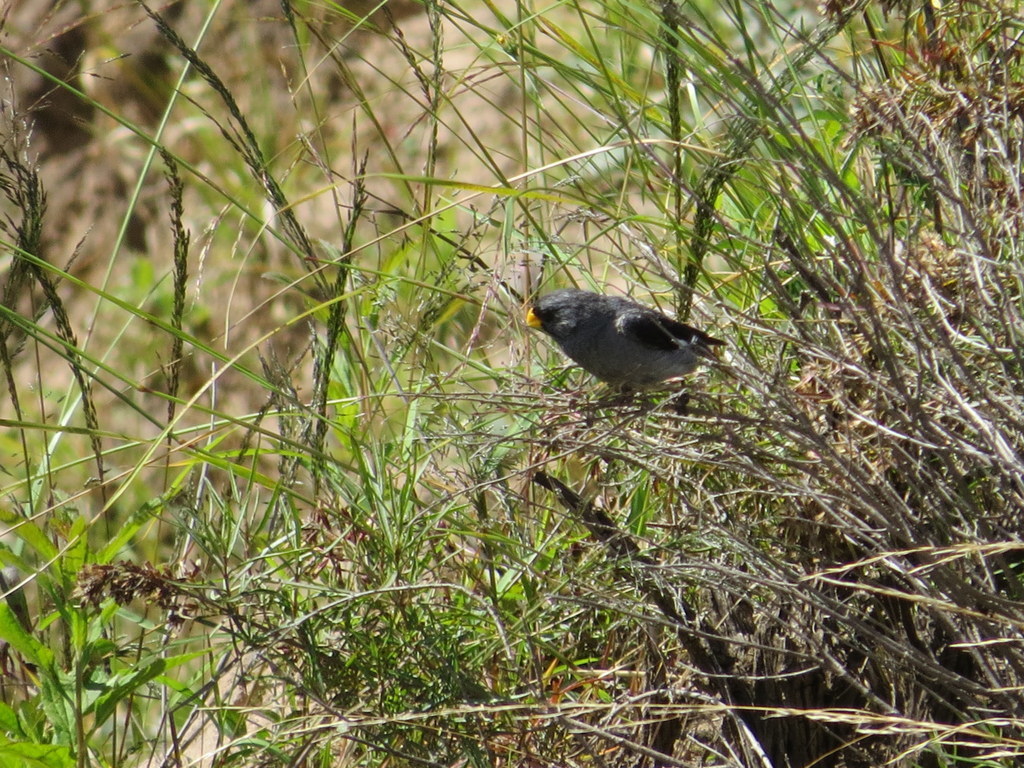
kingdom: Animalia
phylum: Chordata
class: Aves
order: Passeriformes
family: Thraupidae
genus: Catamenia
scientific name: Catamenia analis
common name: Band-tailed seedeater
